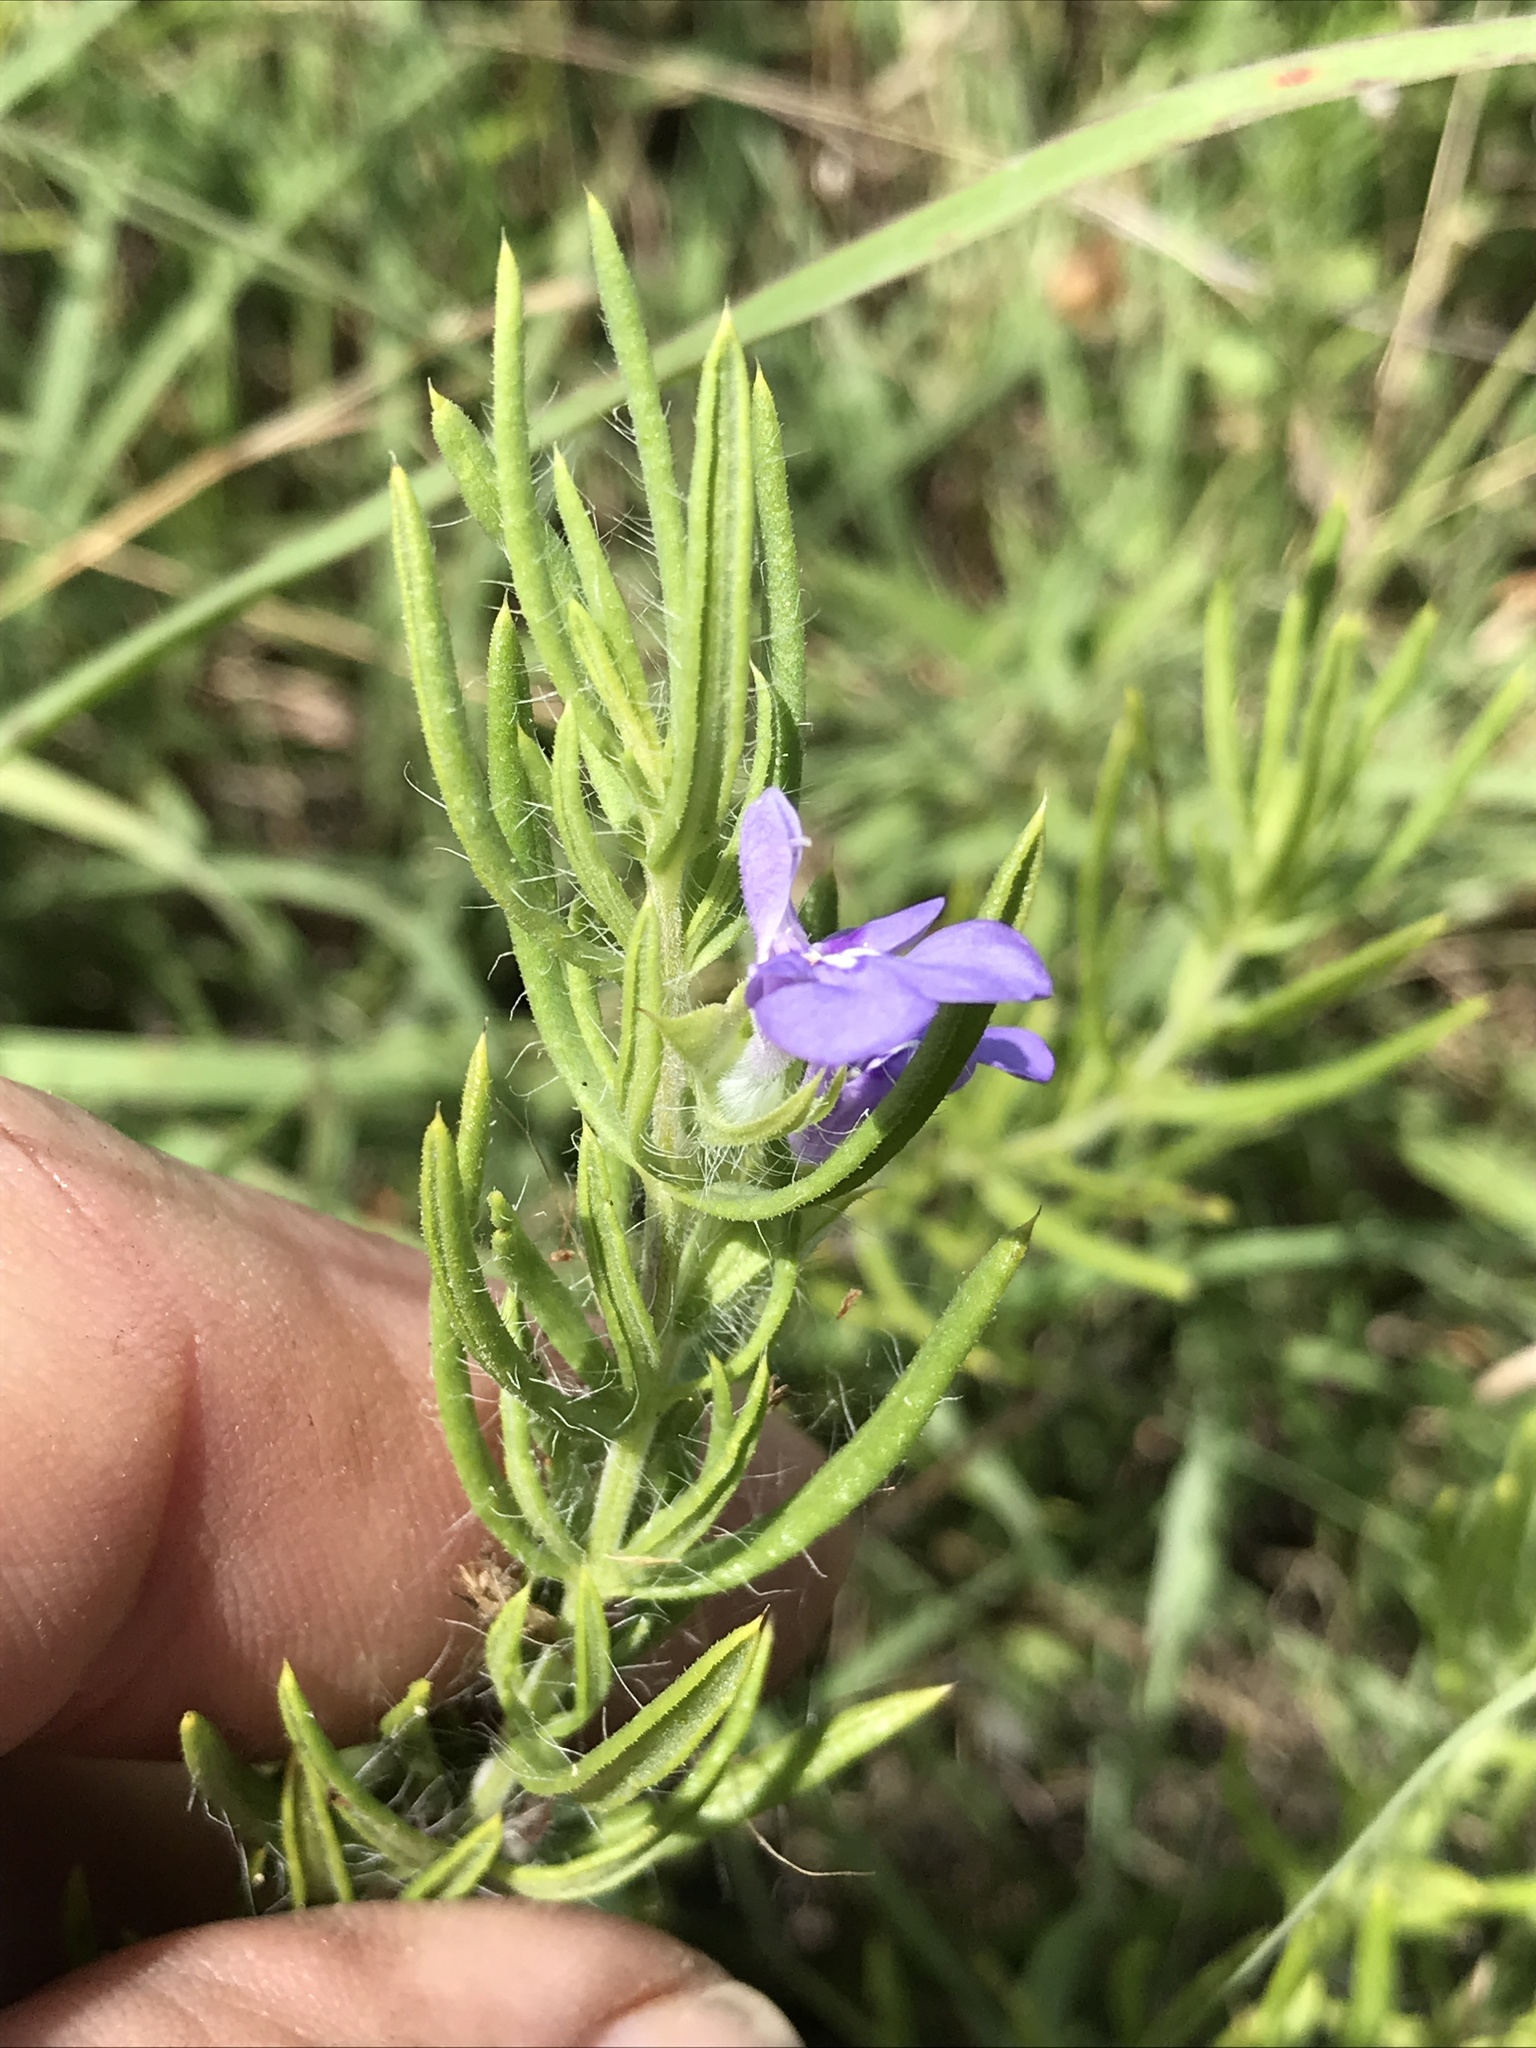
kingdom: Plantae
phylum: Tracheophyta
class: Magnoliopsida
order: Lamiales
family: Lamiaceae
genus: Salvia
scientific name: Salvia texana
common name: Texas sage
